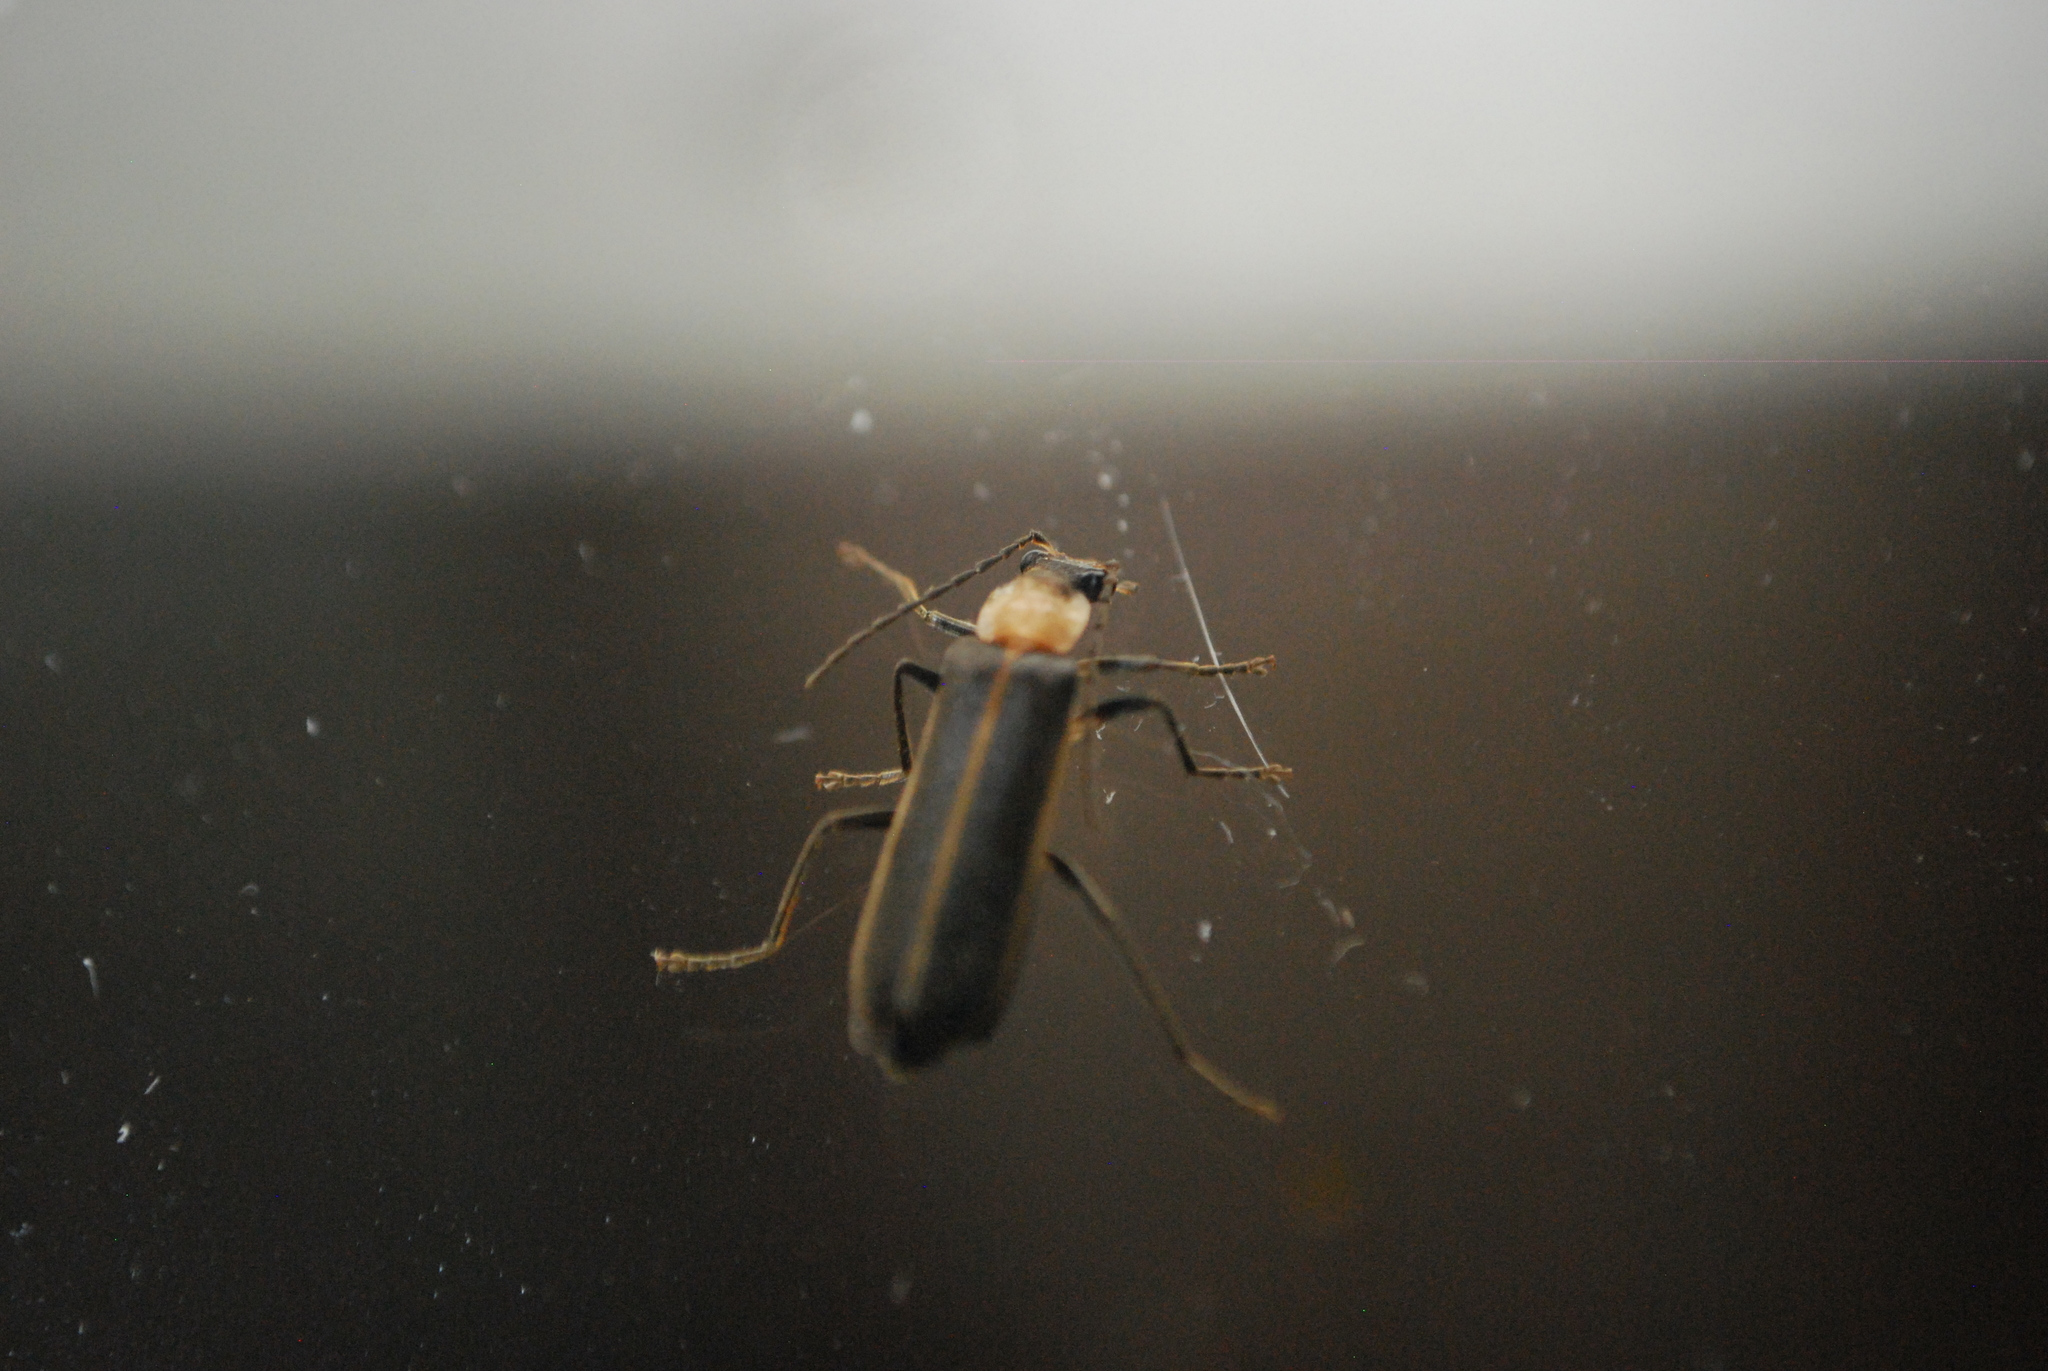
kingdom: Animalia
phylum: Arthropoda
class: Insecta
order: Coleoptera
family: Cantharidae
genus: Podabrus
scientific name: Podabrus flavicollis
